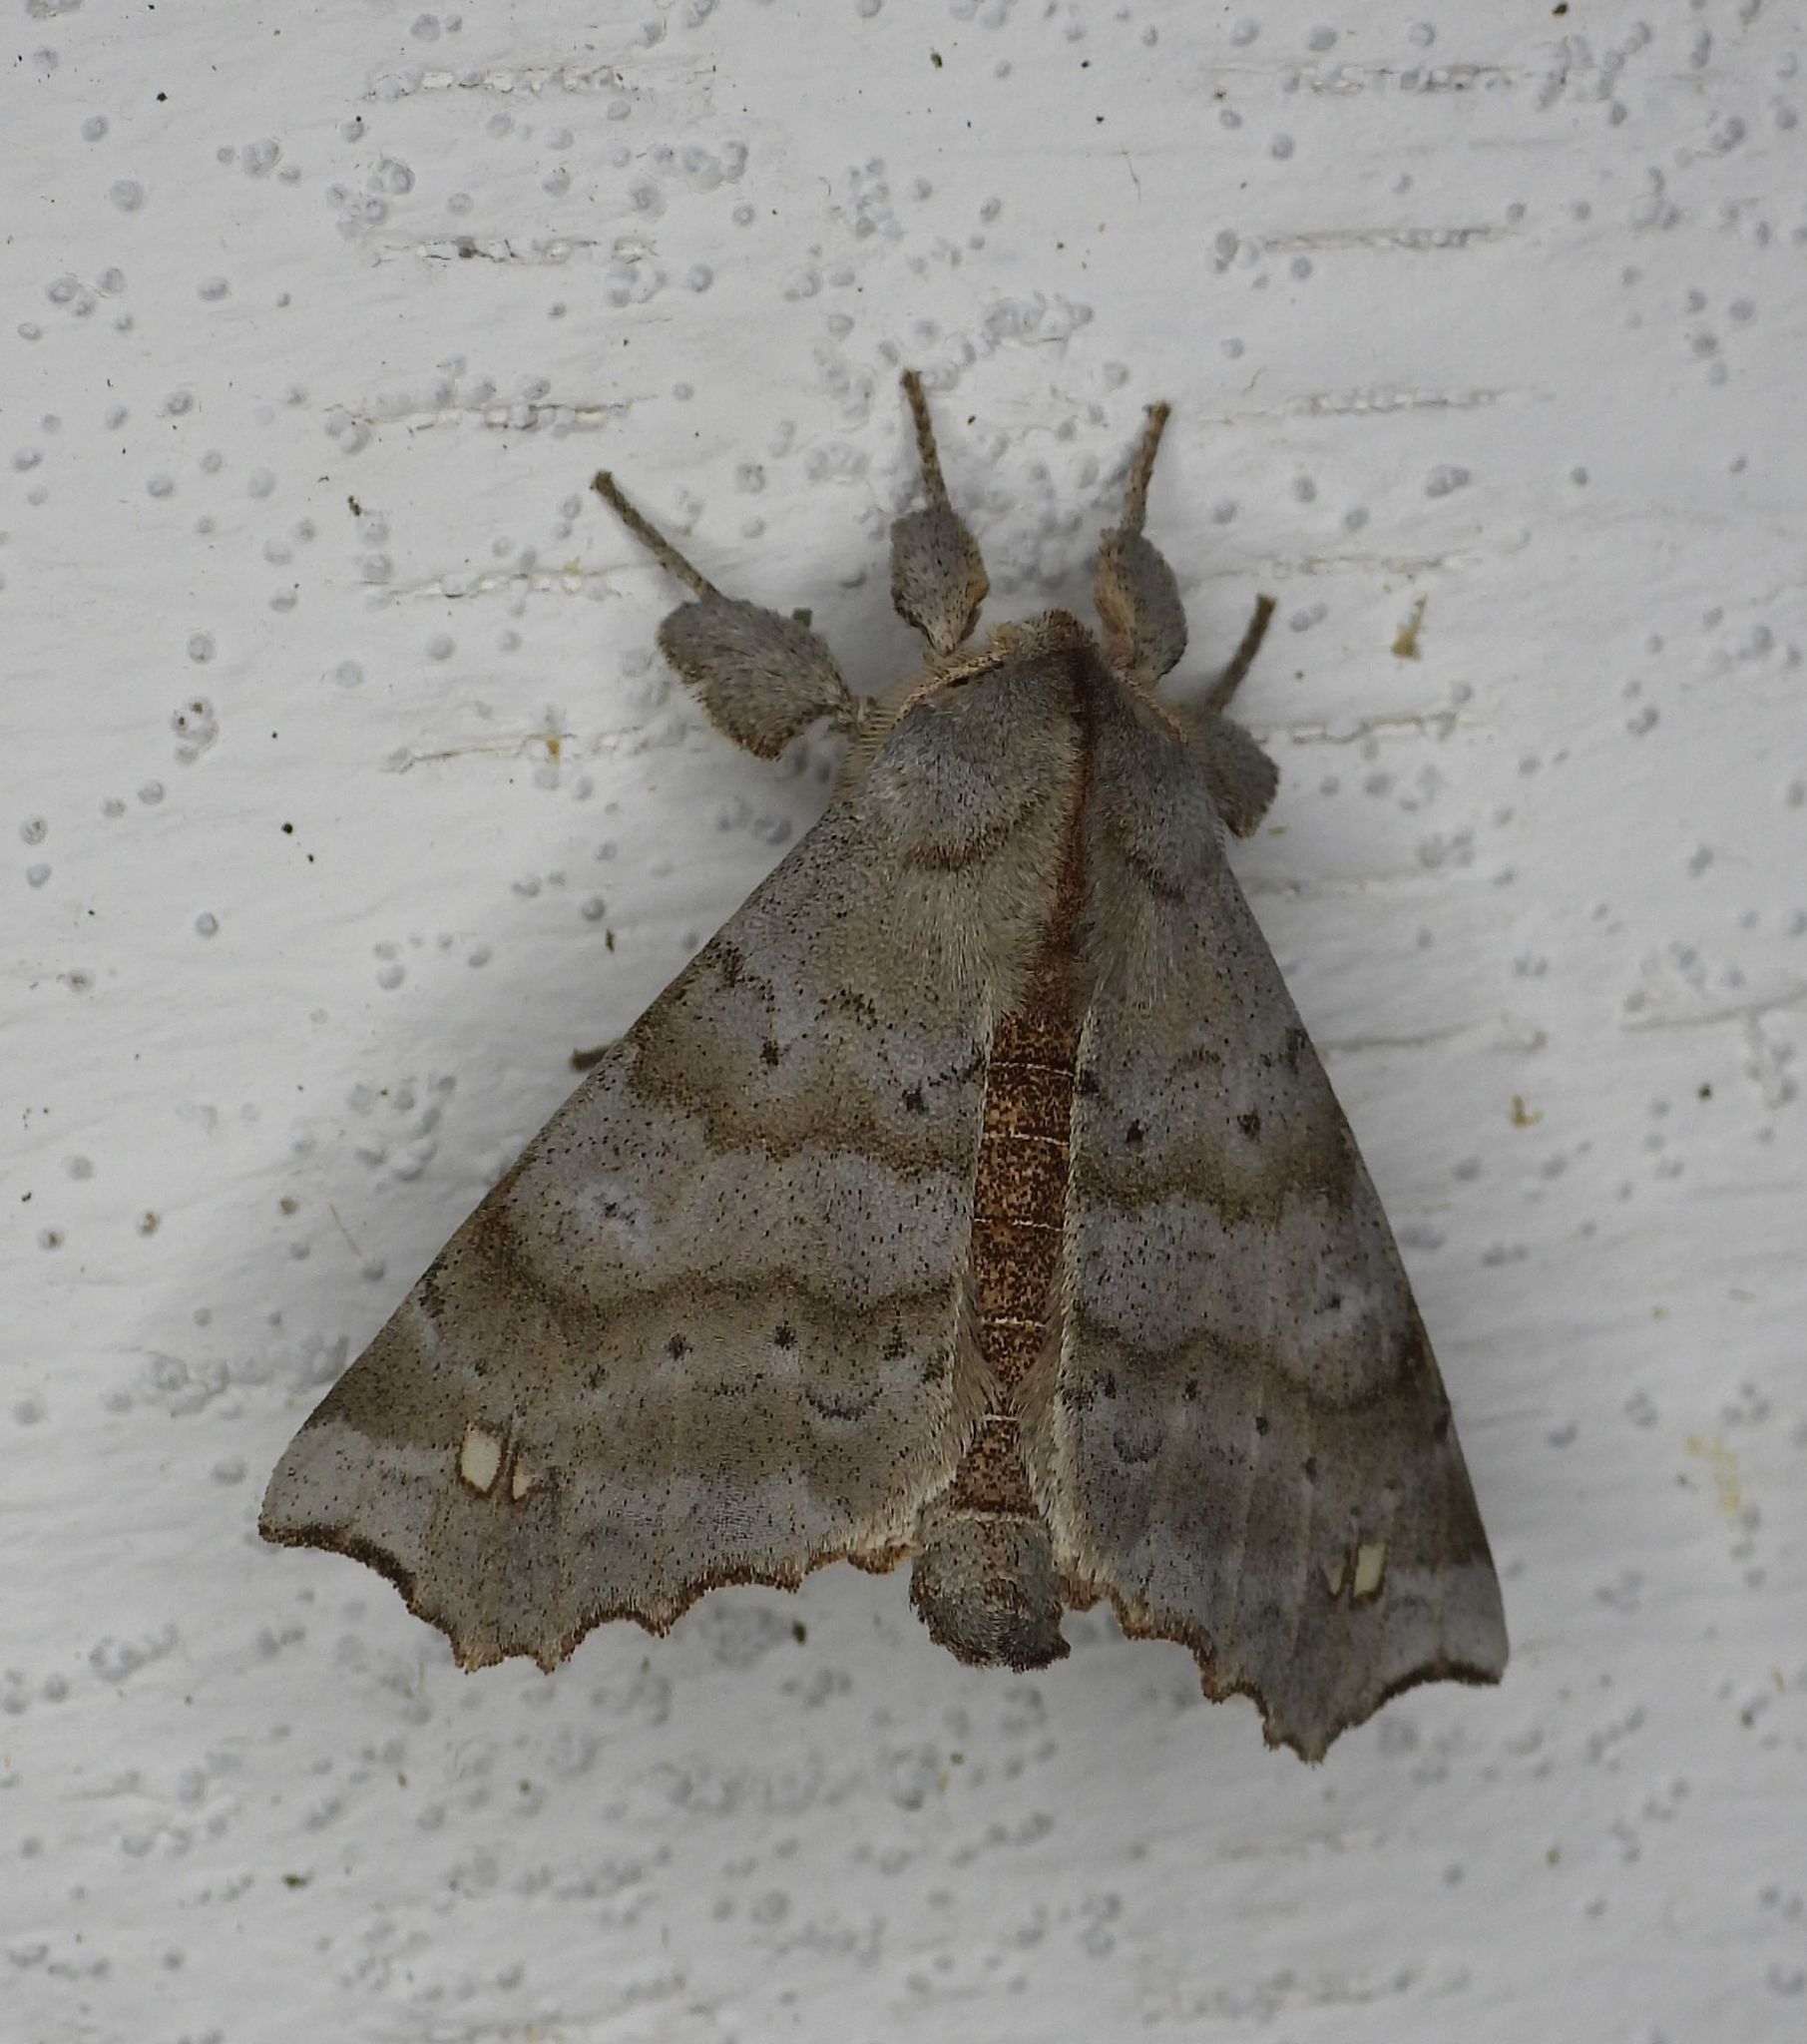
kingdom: Animalia
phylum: Arthropoda
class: Insecta
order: Lepidoptera
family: Apatelodidae
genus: Olceclostera
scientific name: Olceclostera angelica
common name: Angel moth
